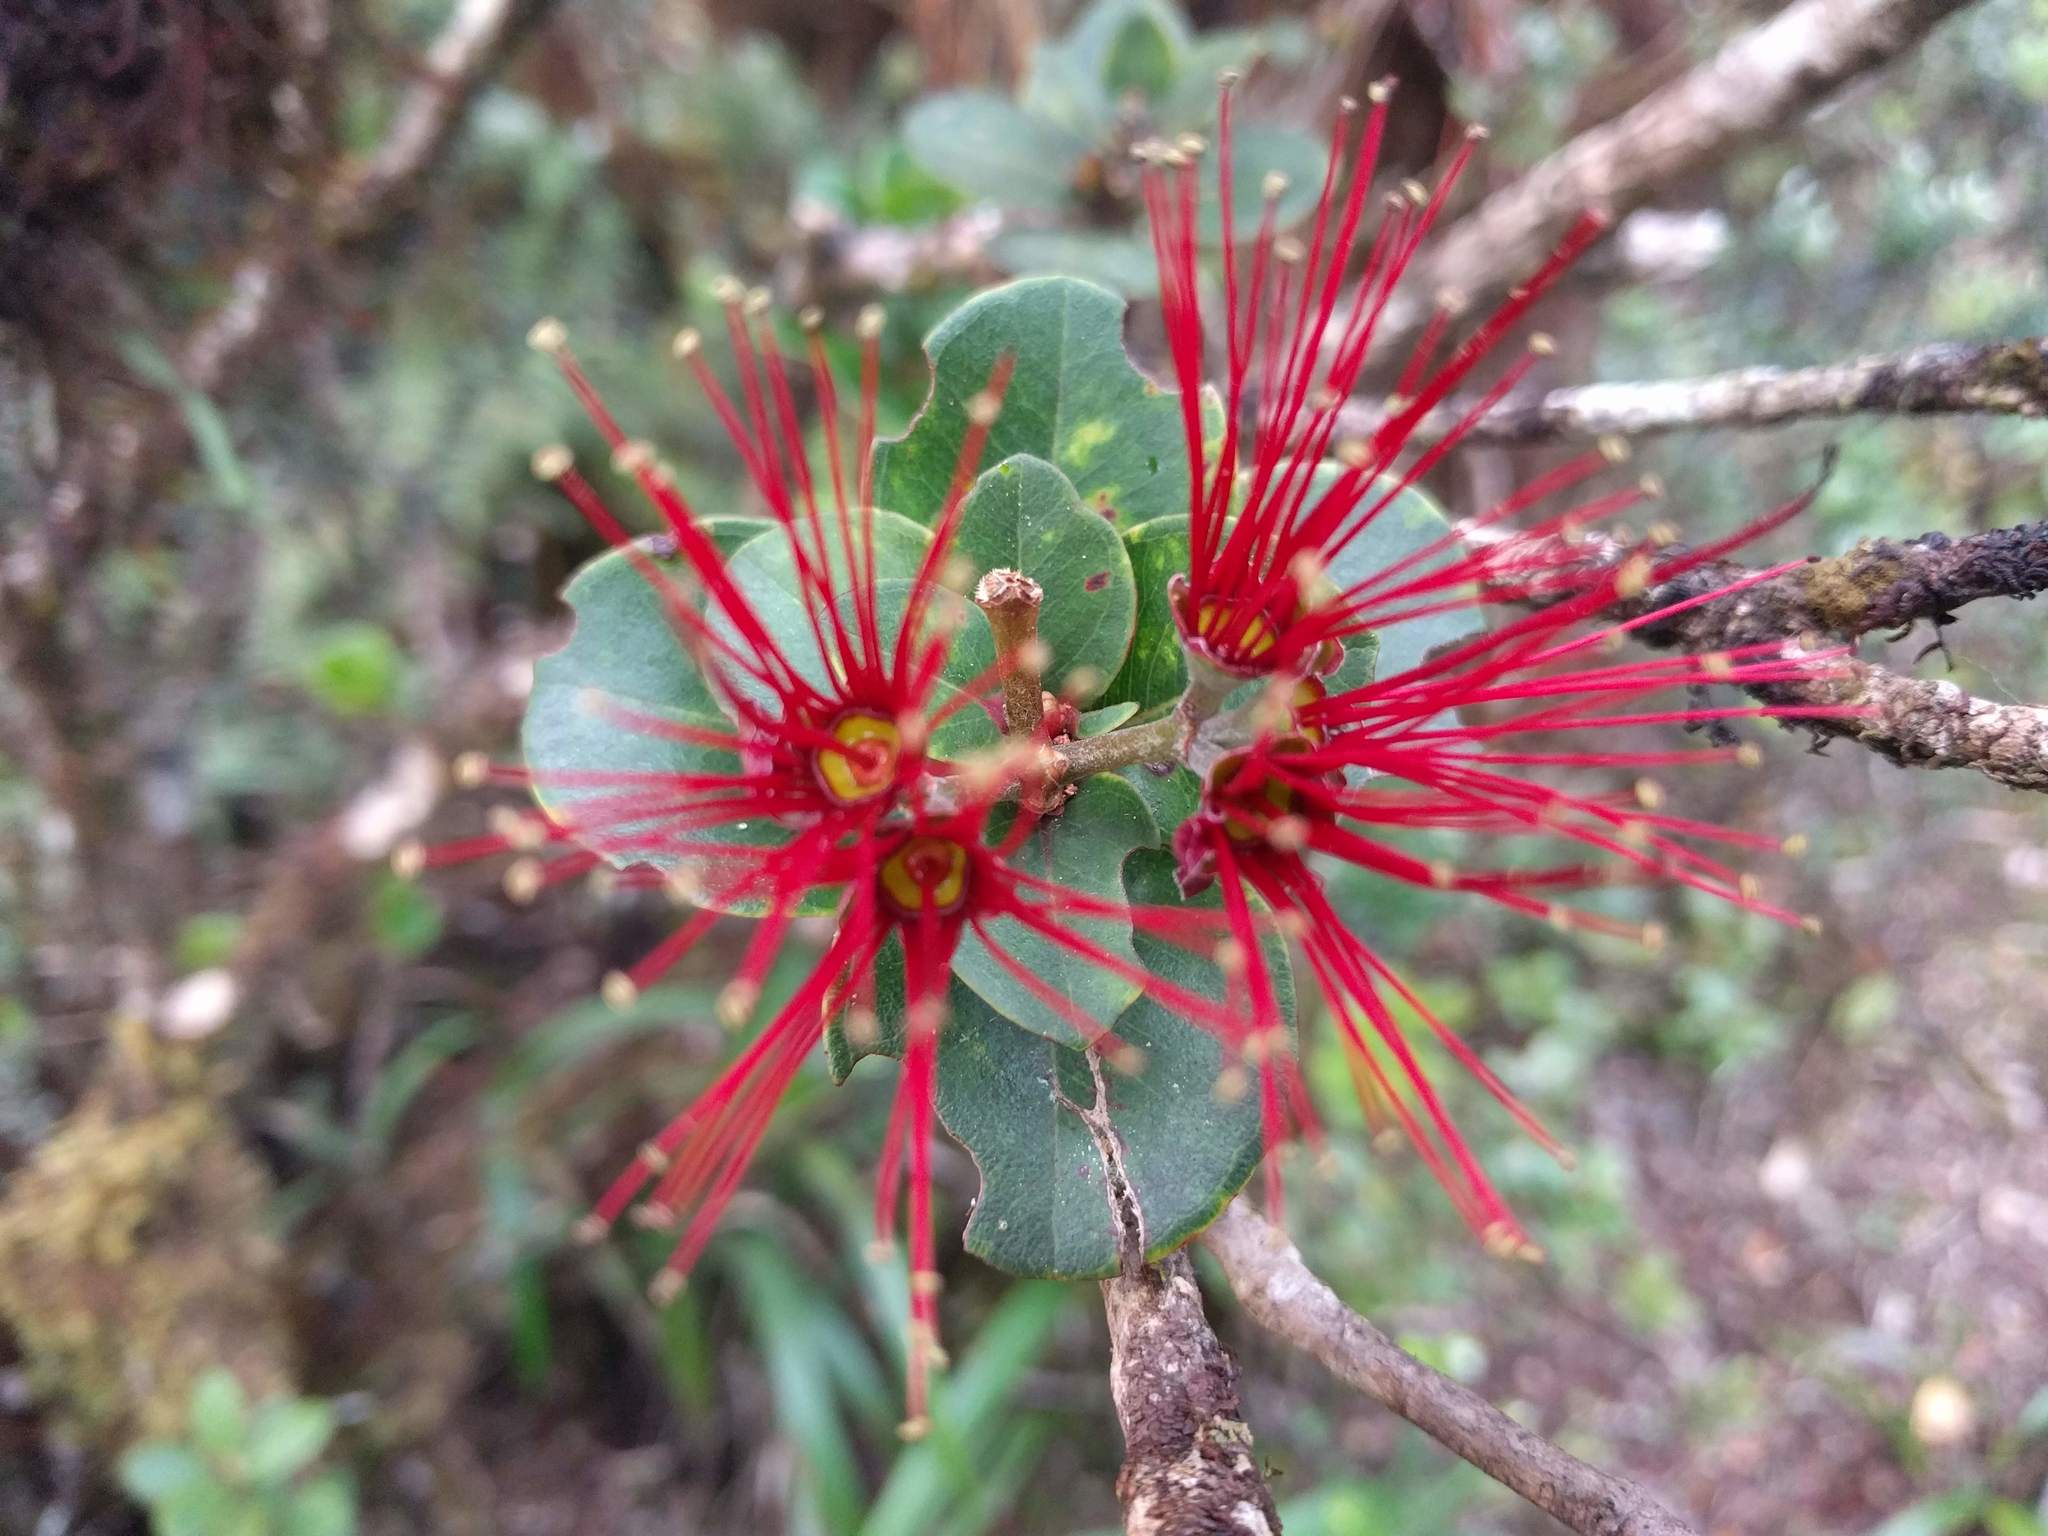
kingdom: Plantae
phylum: Tracheophyta
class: Magnoliopsida
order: Myrtales
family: Myrtaceae
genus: Metrosideros
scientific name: Metrosideros polymorpha
